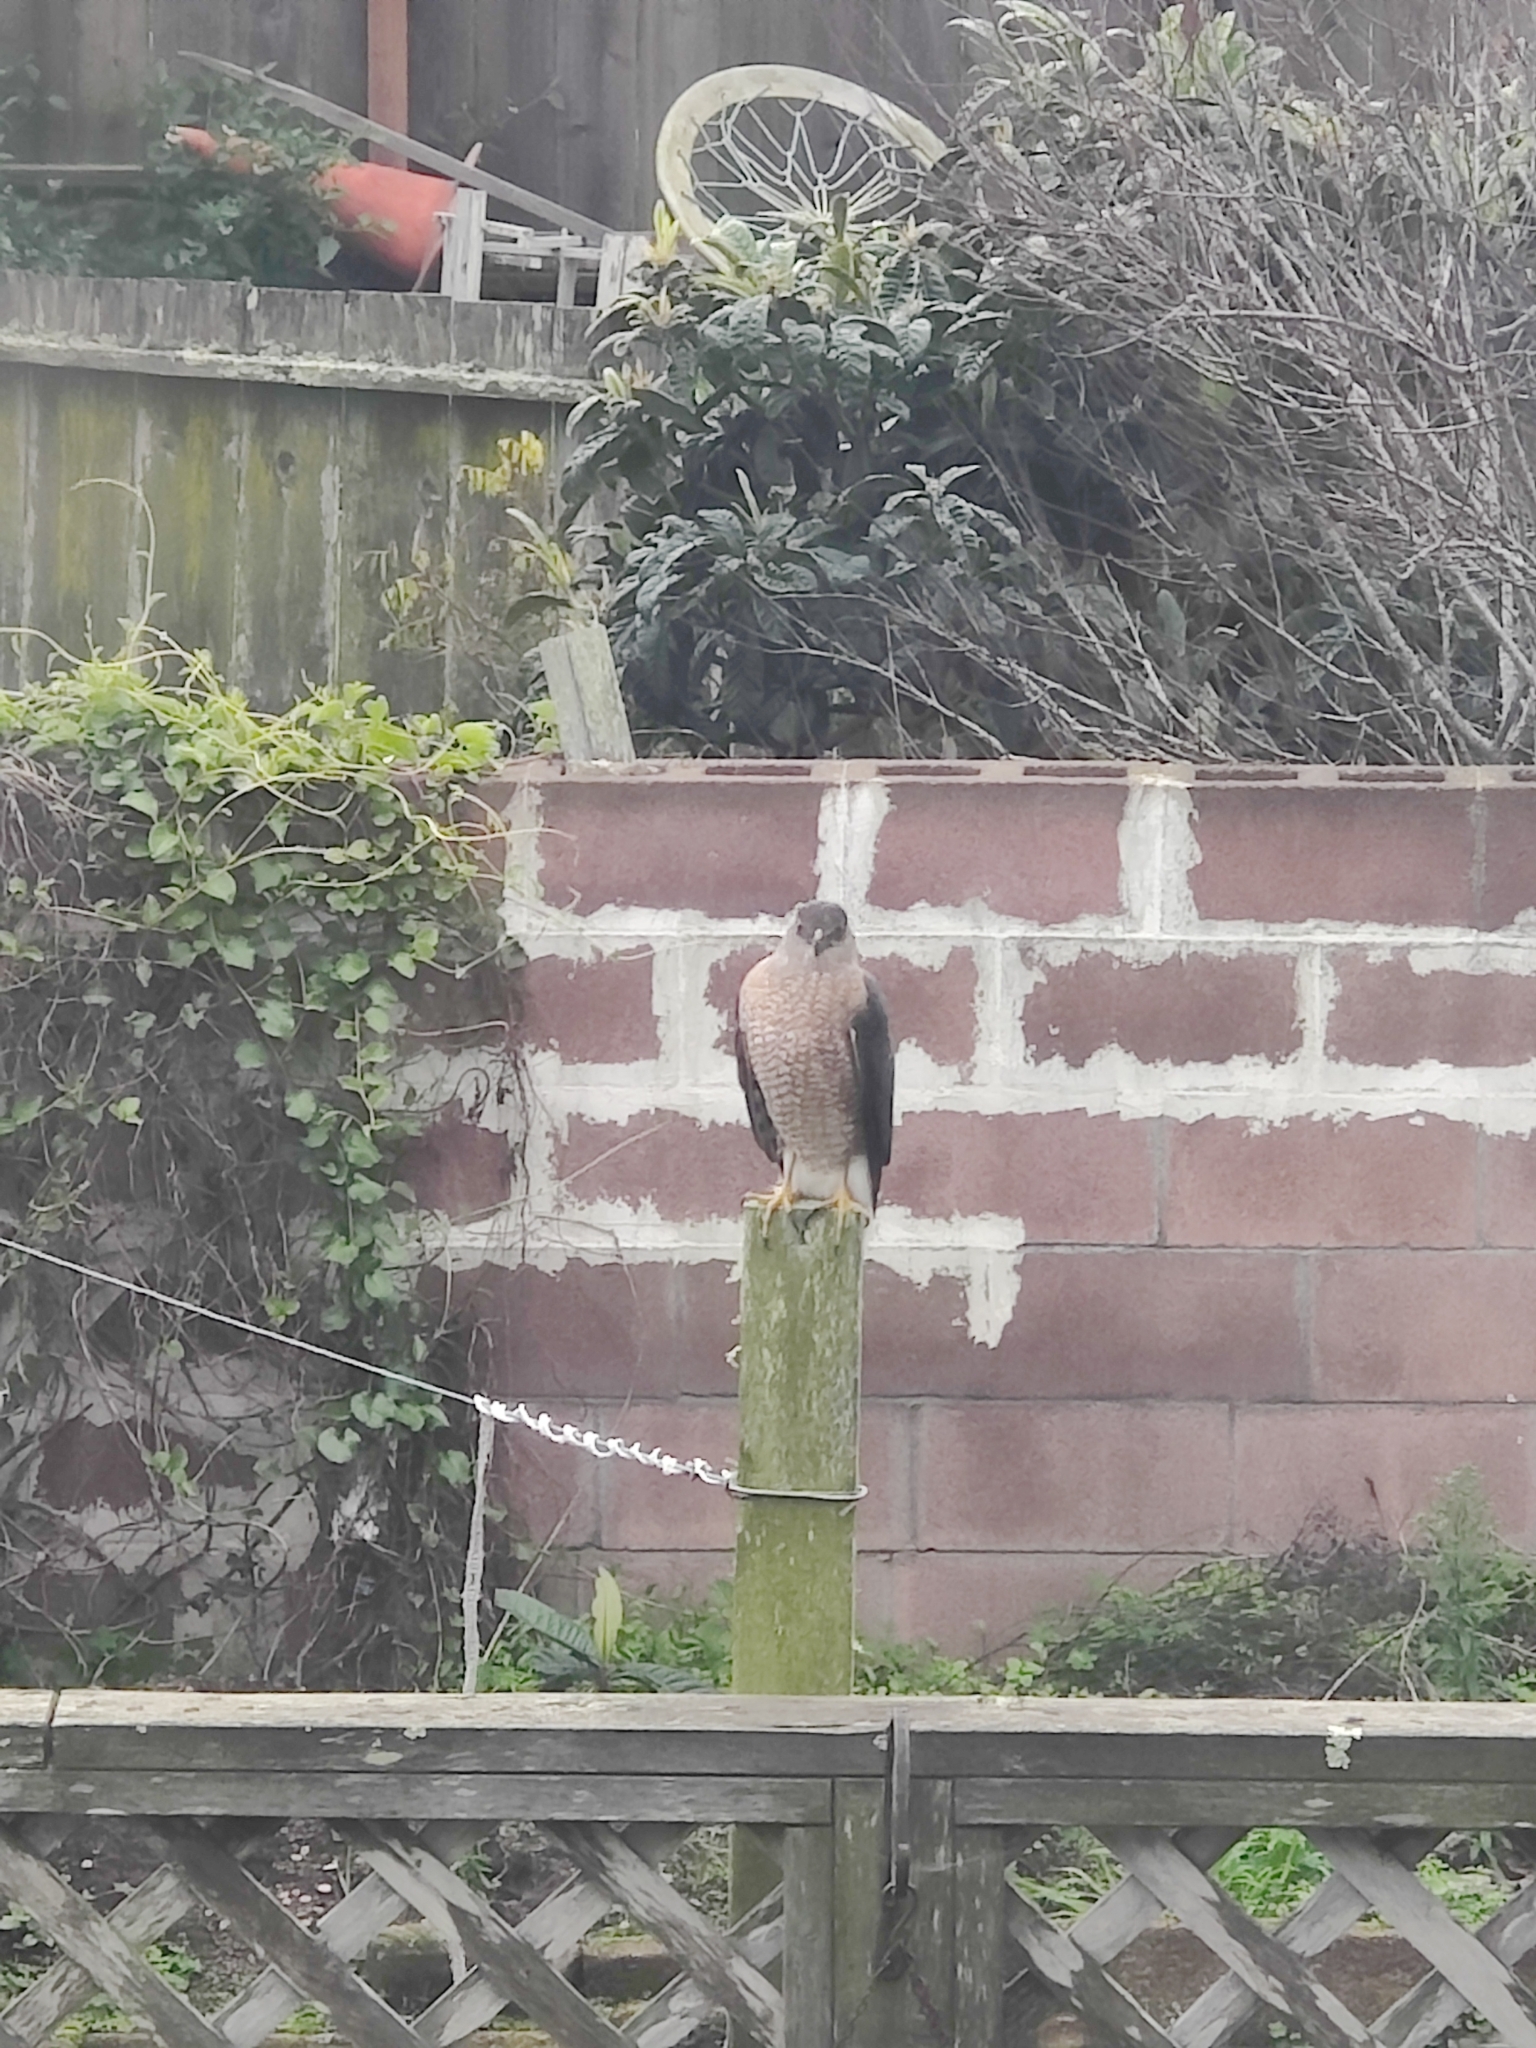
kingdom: Animalia
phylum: Chordata
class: Aves
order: Accipitriformes
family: Accipitridae
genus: Accipiter
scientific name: Accipiter cooperii
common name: Cooper's hawk
